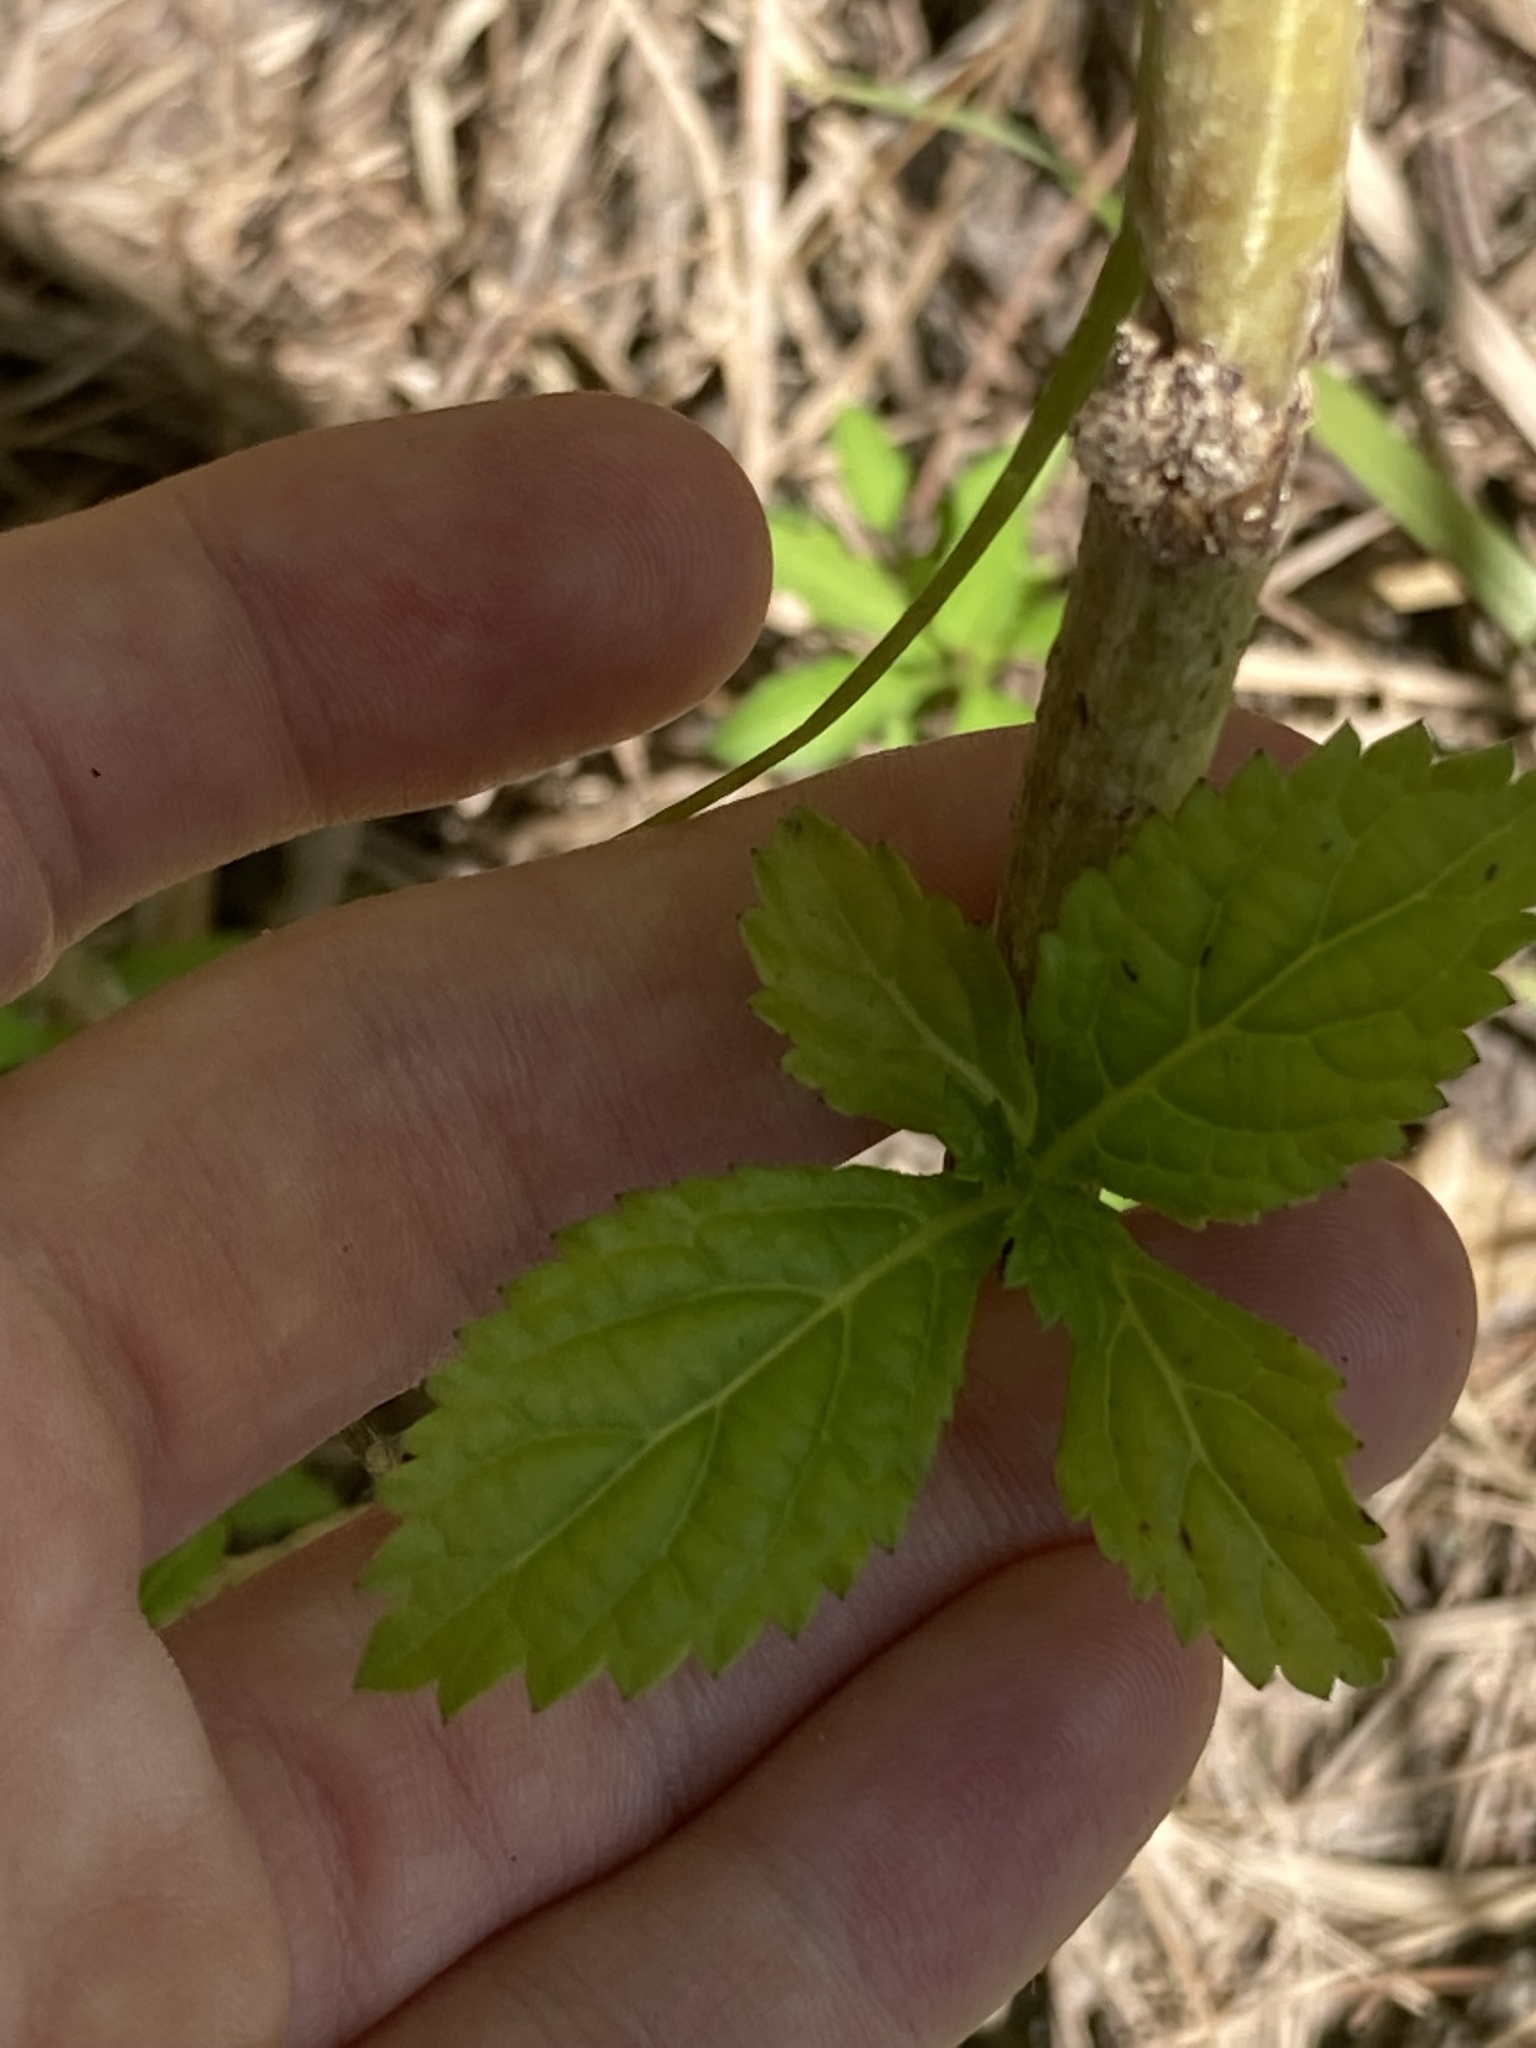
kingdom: Plantae
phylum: Tracheophyta
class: Magnoliopsida
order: Lamiales
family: Verbenaceae
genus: Stachytarpheta
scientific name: Stachytarpheta cayennensis
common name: Cayenne porterweed
